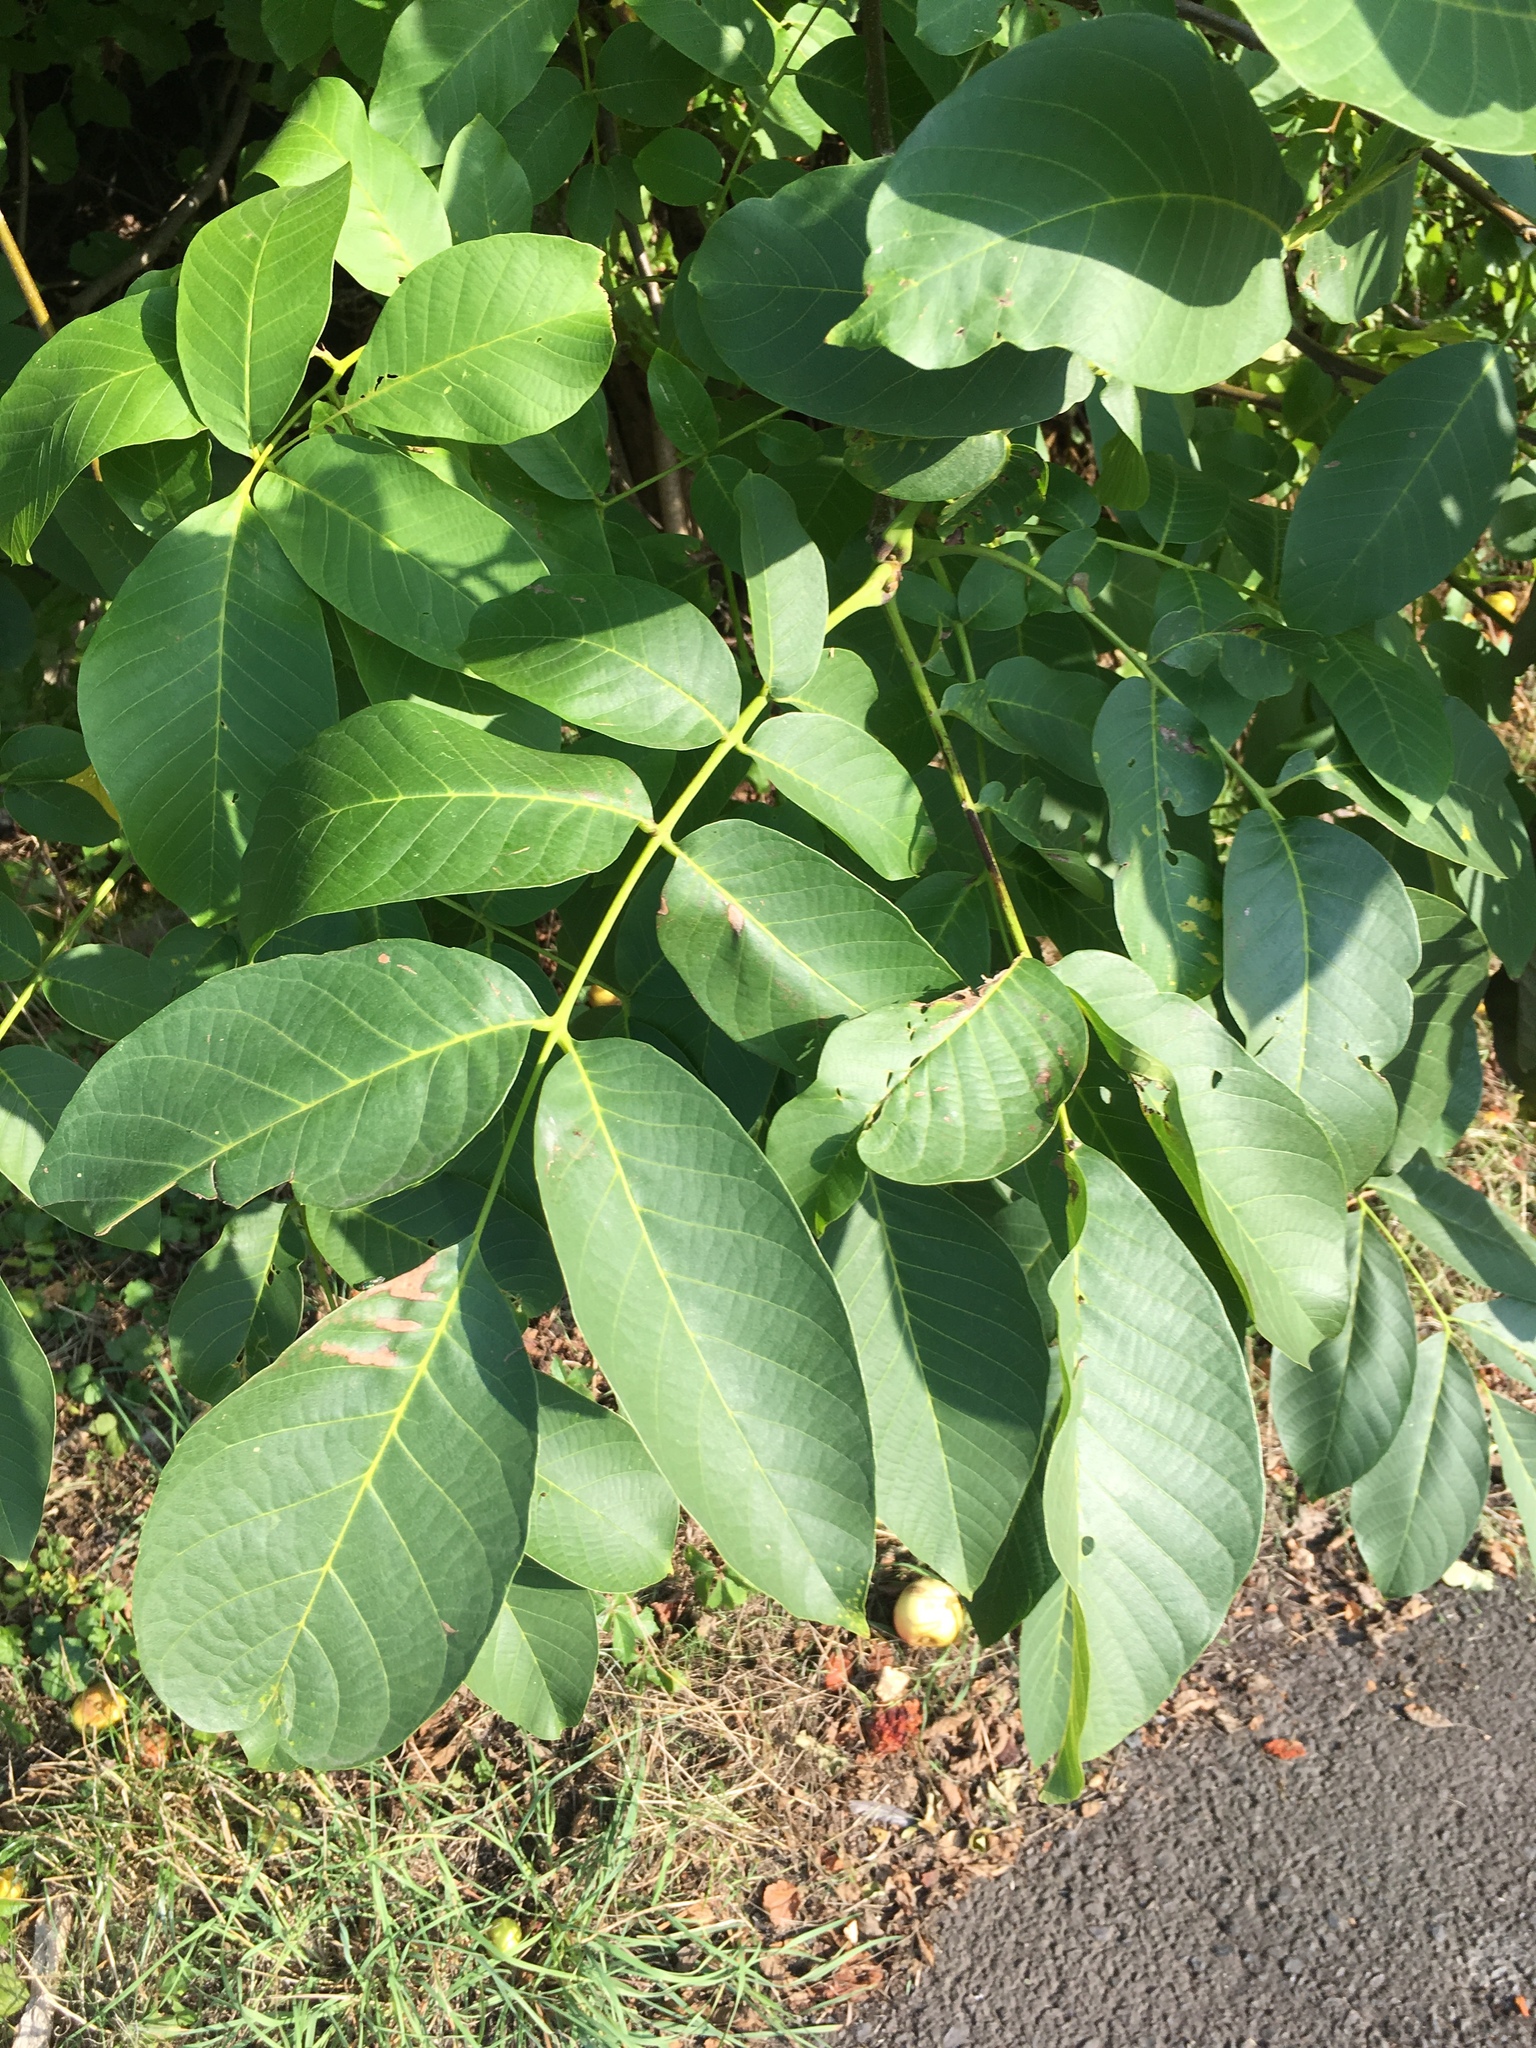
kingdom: Plantae
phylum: Tracheophyta
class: Magnoliopsida
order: Fagales
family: Juglandaceae
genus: Juglans
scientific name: Juglans regia
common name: Walnut
